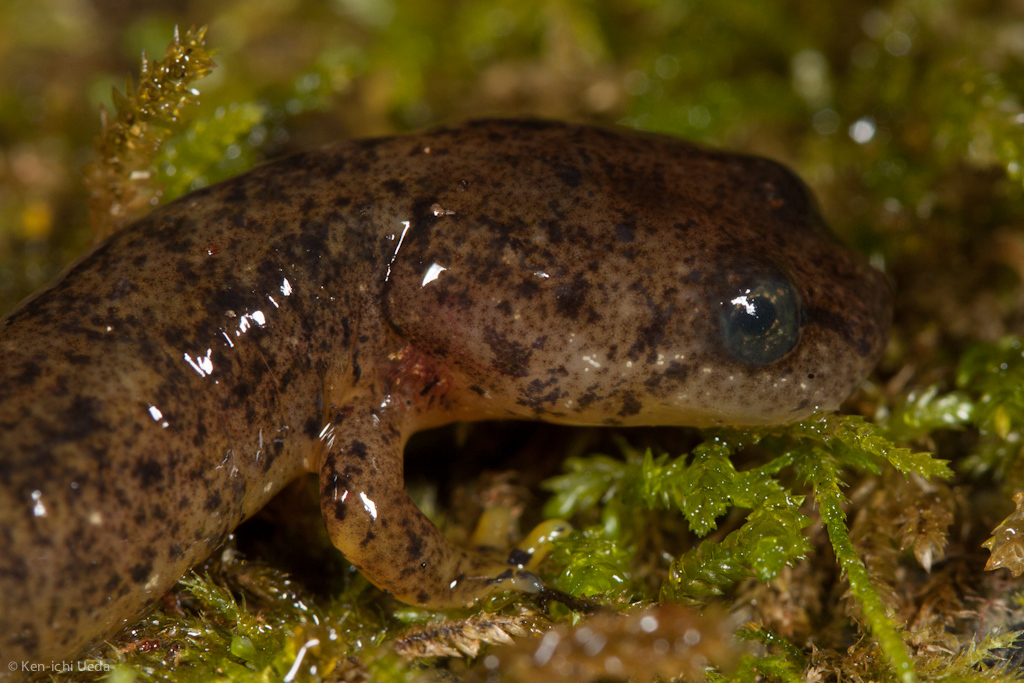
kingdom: Animalia
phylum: Chordata
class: Amphibia
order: Caudata
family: Rhyacotritonidae
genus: Rhyacotriton
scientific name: Rhyacotriton variegatus
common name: Southern torrent salamander
